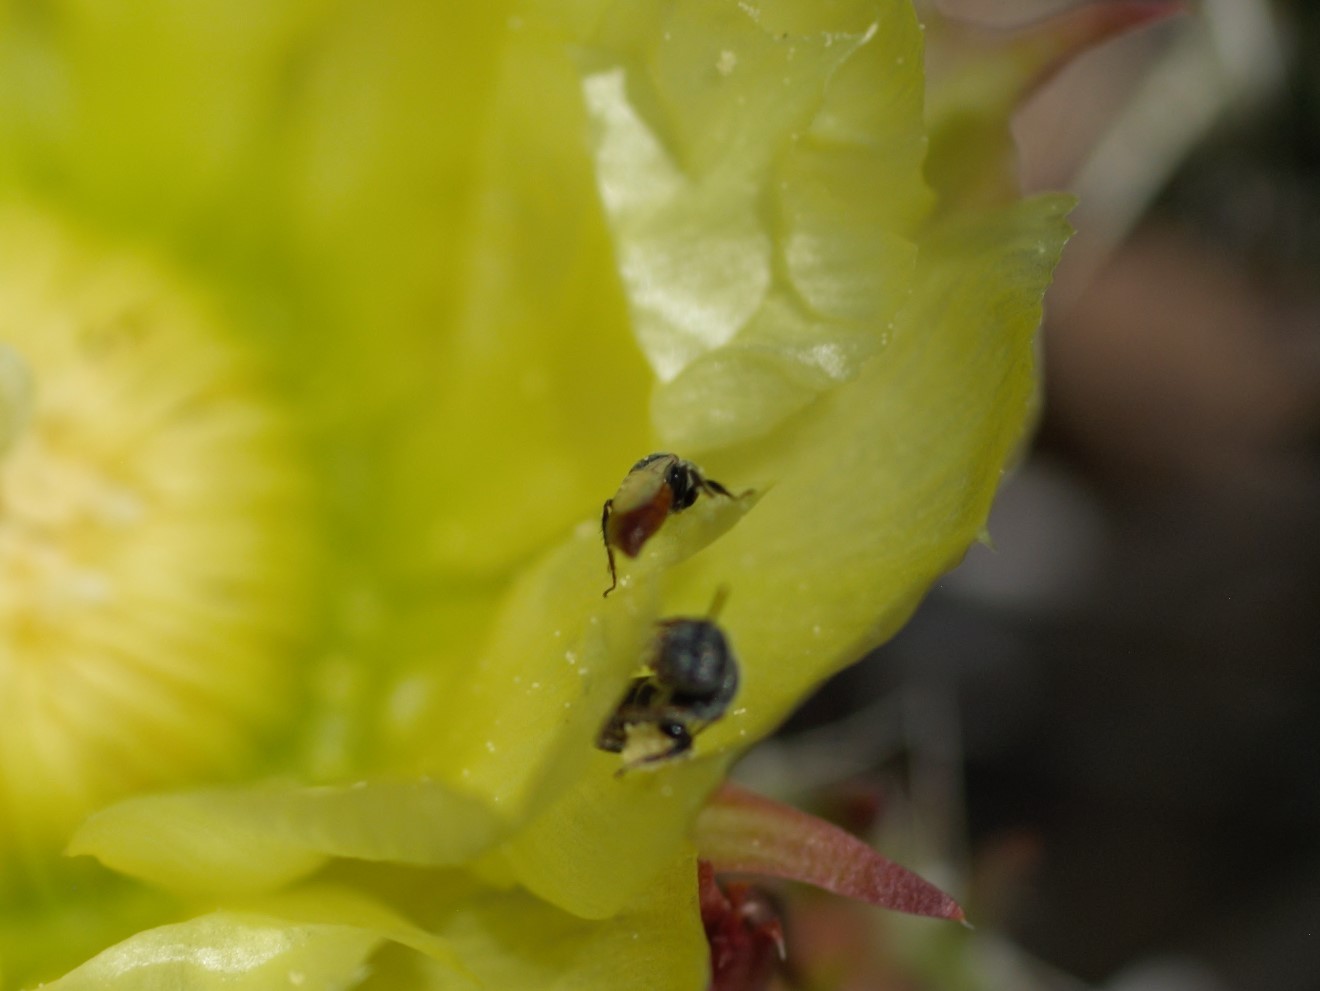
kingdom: Animalia
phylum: Arthropoda
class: Insecta
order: Hymenoptera
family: Andrenidae
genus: Macrotera
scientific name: Macrotera
